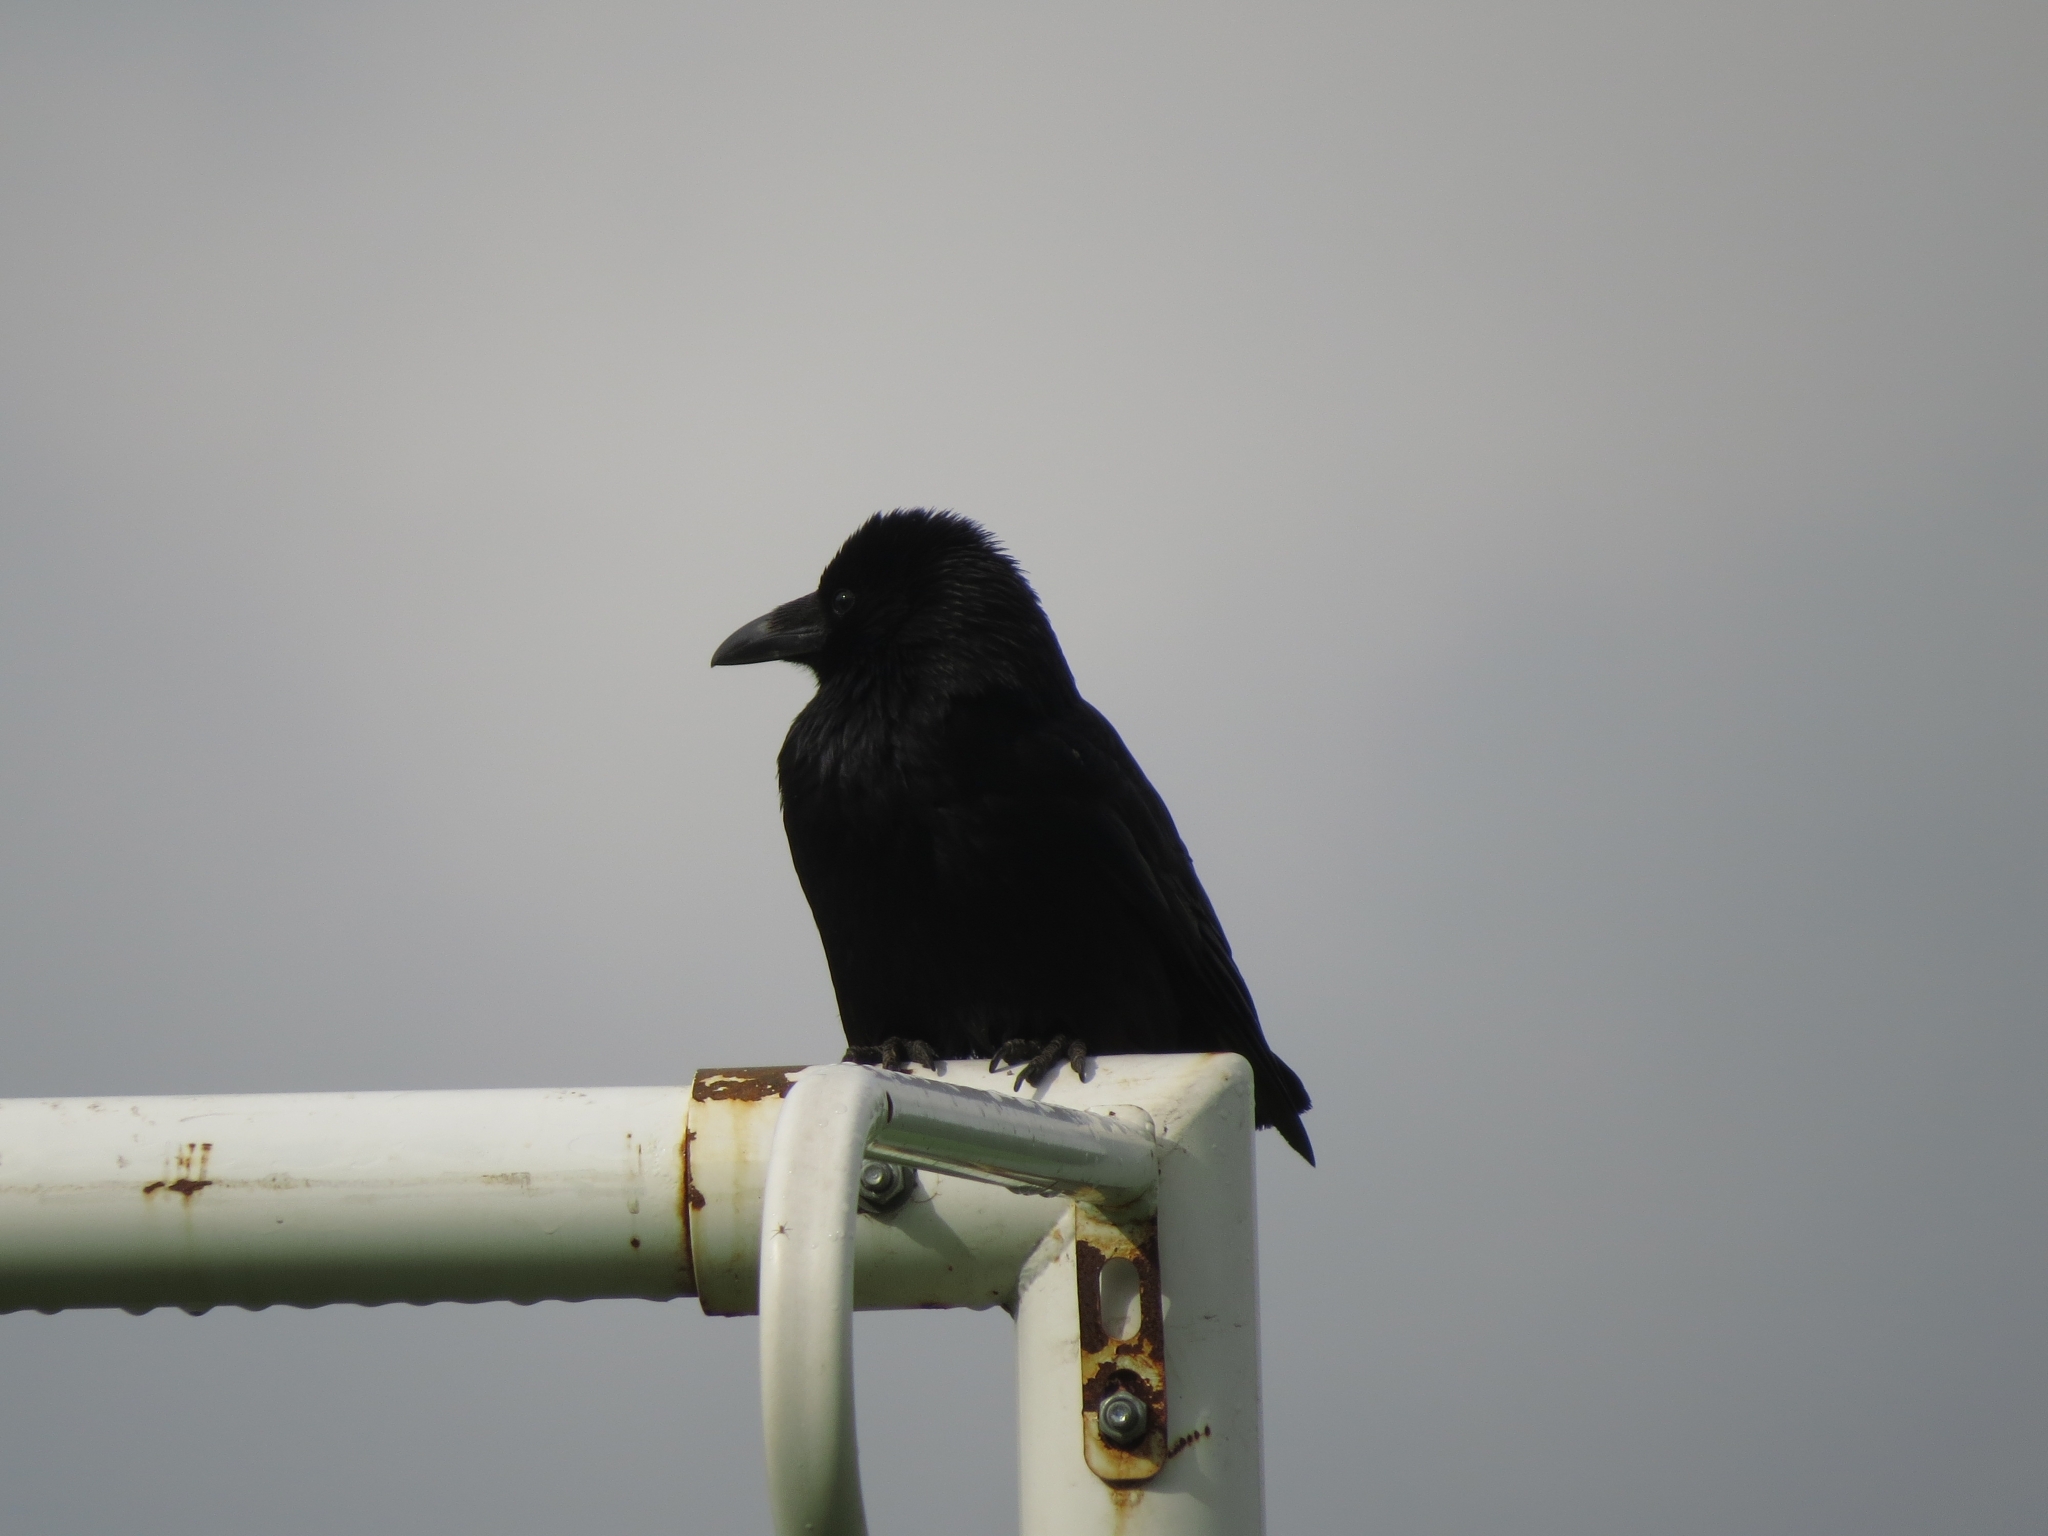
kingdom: Animalia
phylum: Chordata
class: Aves
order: Passeriformes
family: Corvidae
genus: Corvus
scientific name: Corvus corax
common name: Common raven
